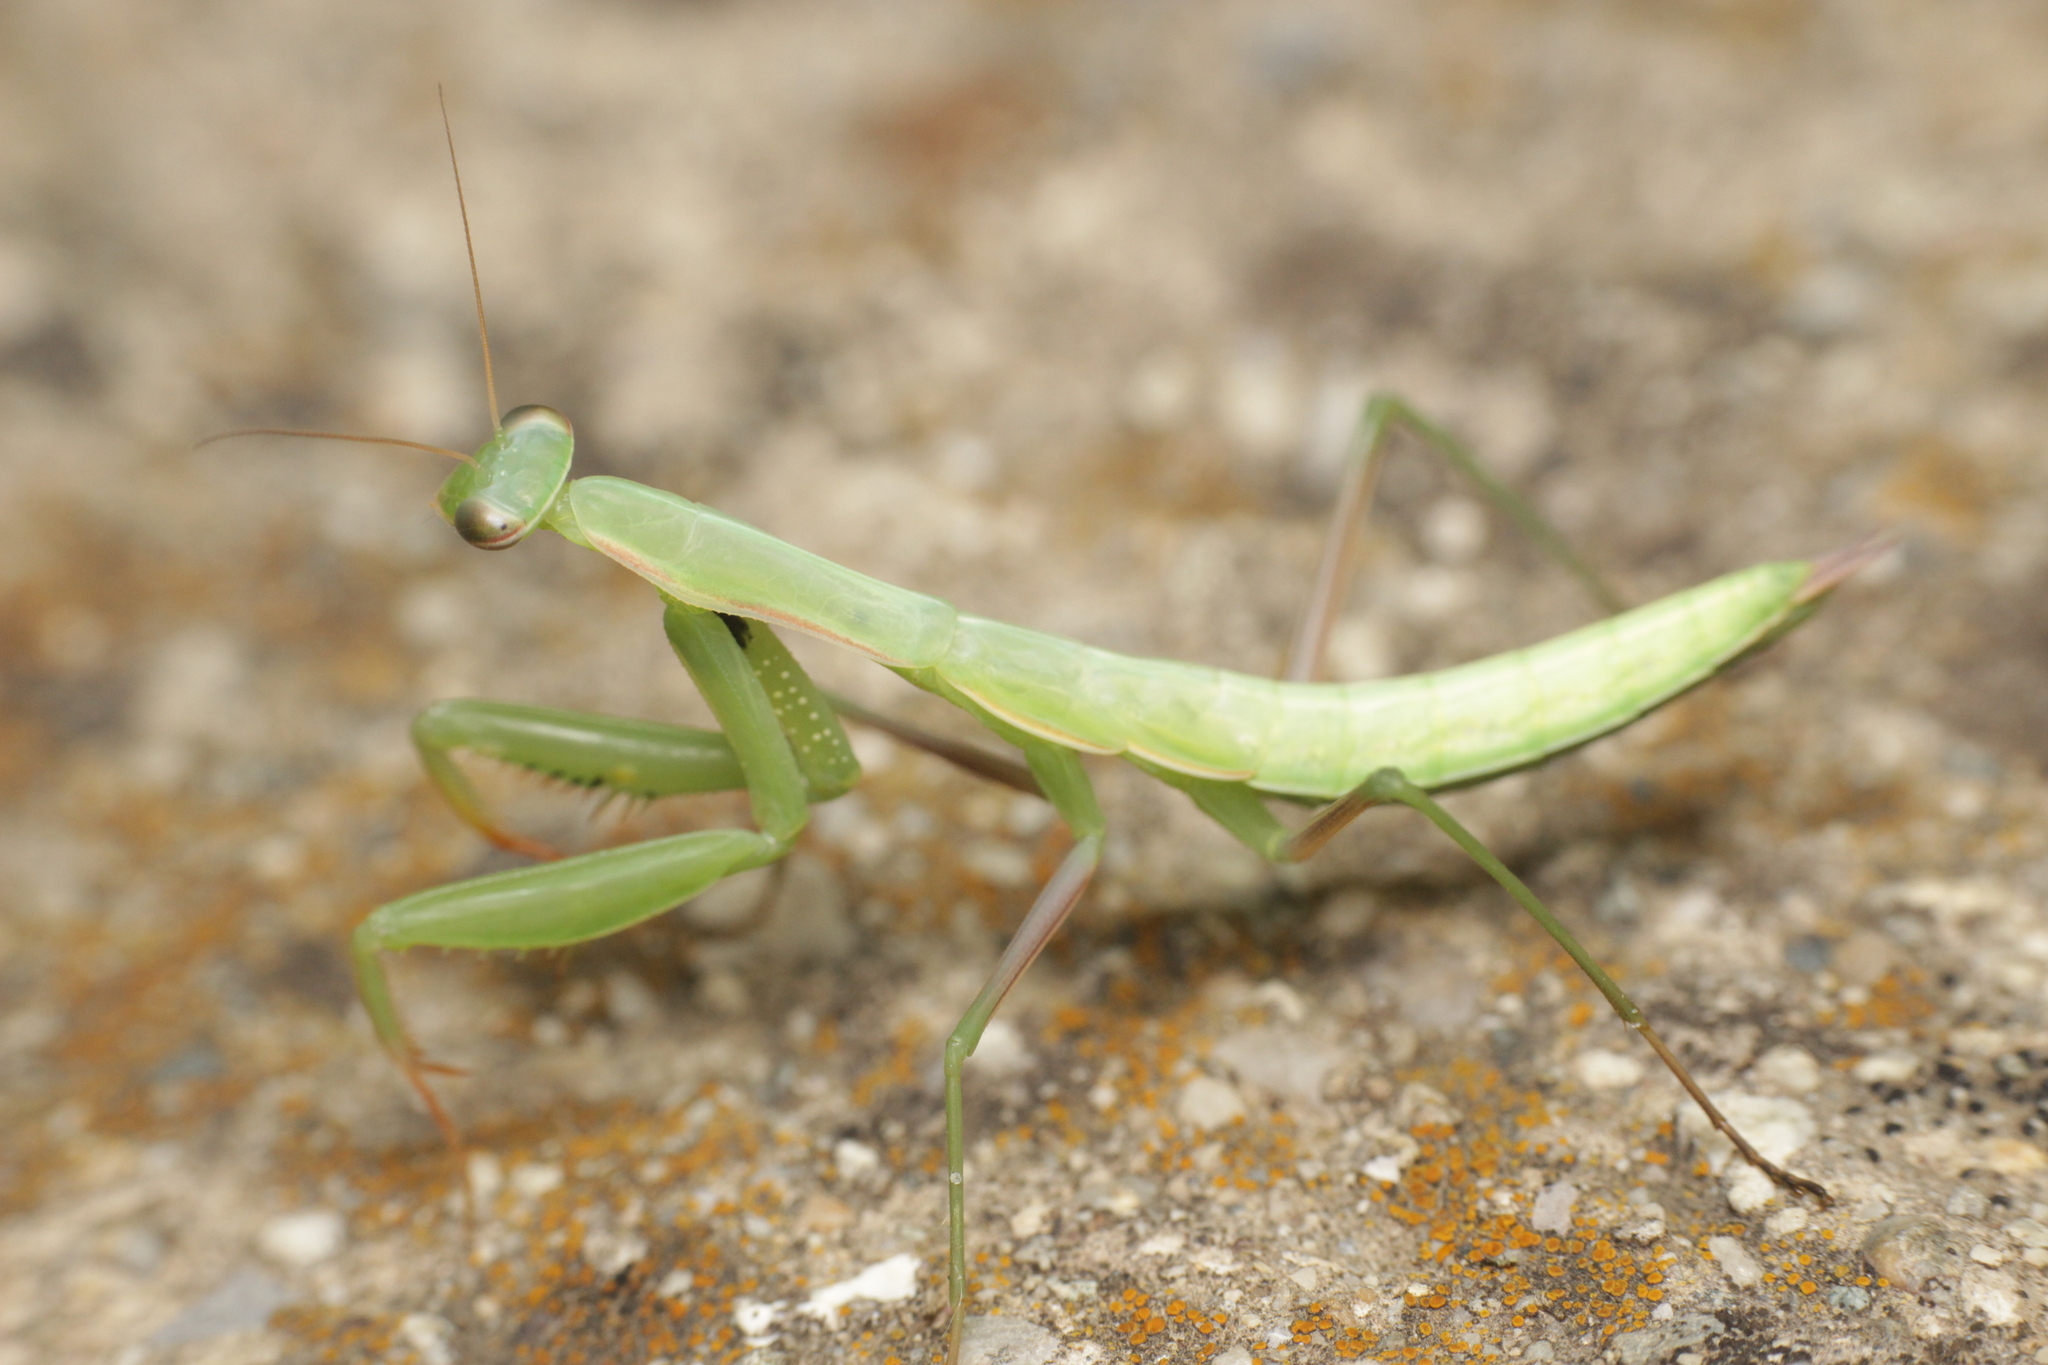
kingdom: Animalia
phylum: Arthropoda
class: Insecta
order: Mantodea
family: Mantidae
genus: Mantis
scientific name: Mantis religiosa
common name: Praying mantis
